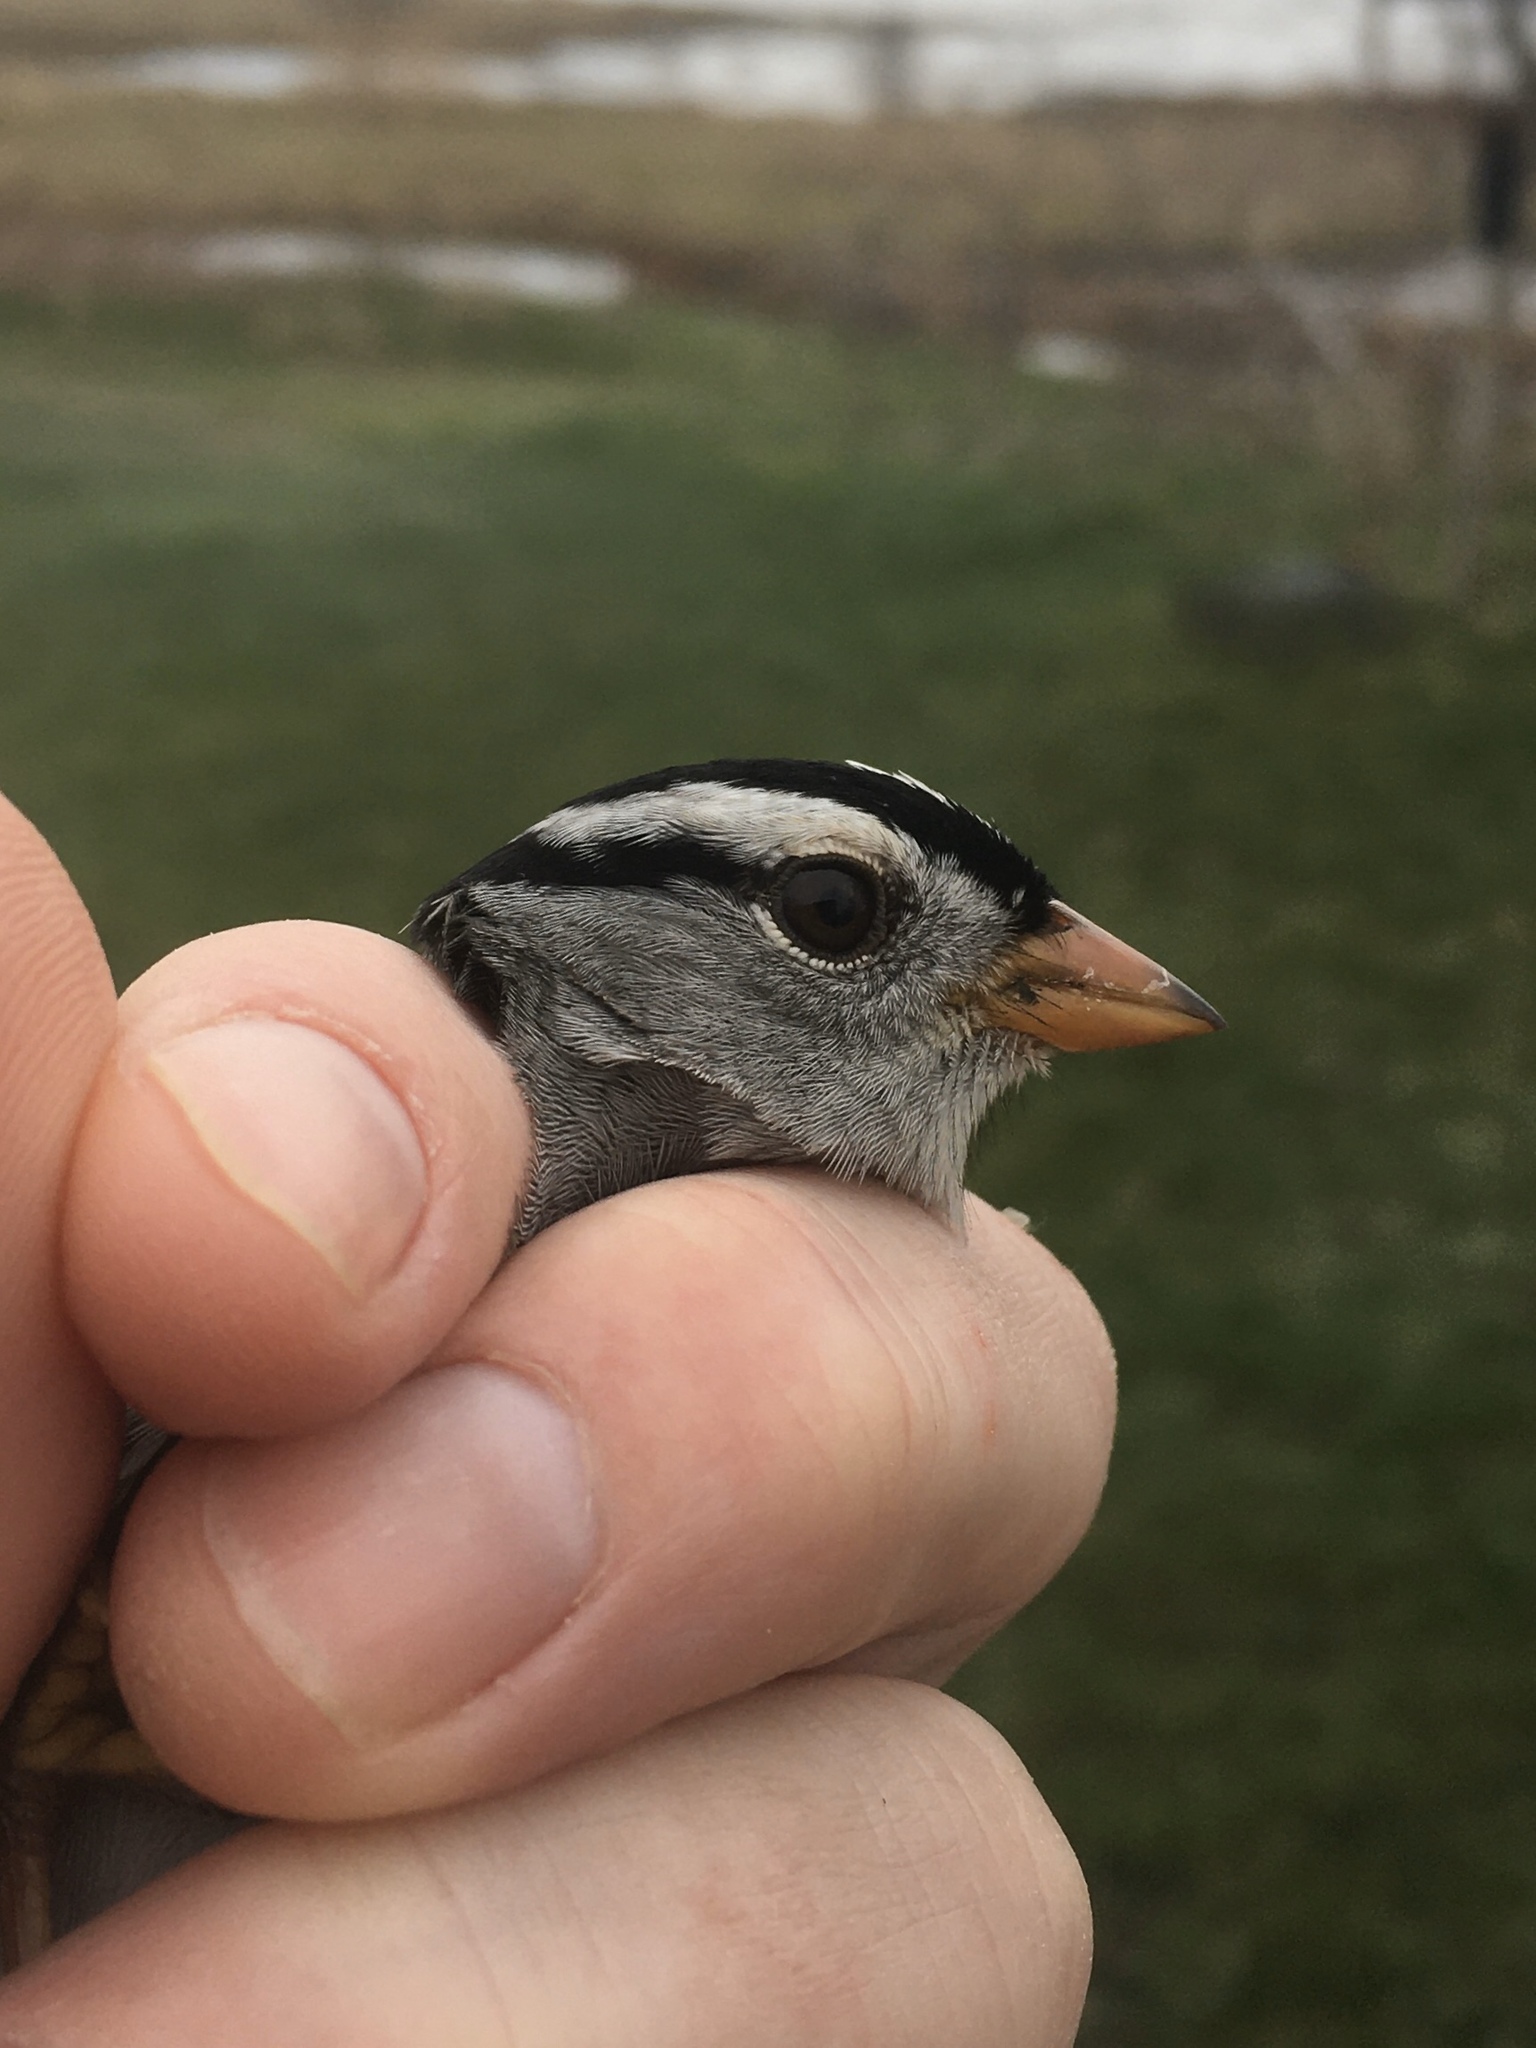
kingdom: Animalia
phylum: Chordata
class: Aves
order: Passeriformes
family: Passerellidae
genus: Zonotrichia
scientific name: Zonotrichia leucophrys
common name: White-crowned sparrow
